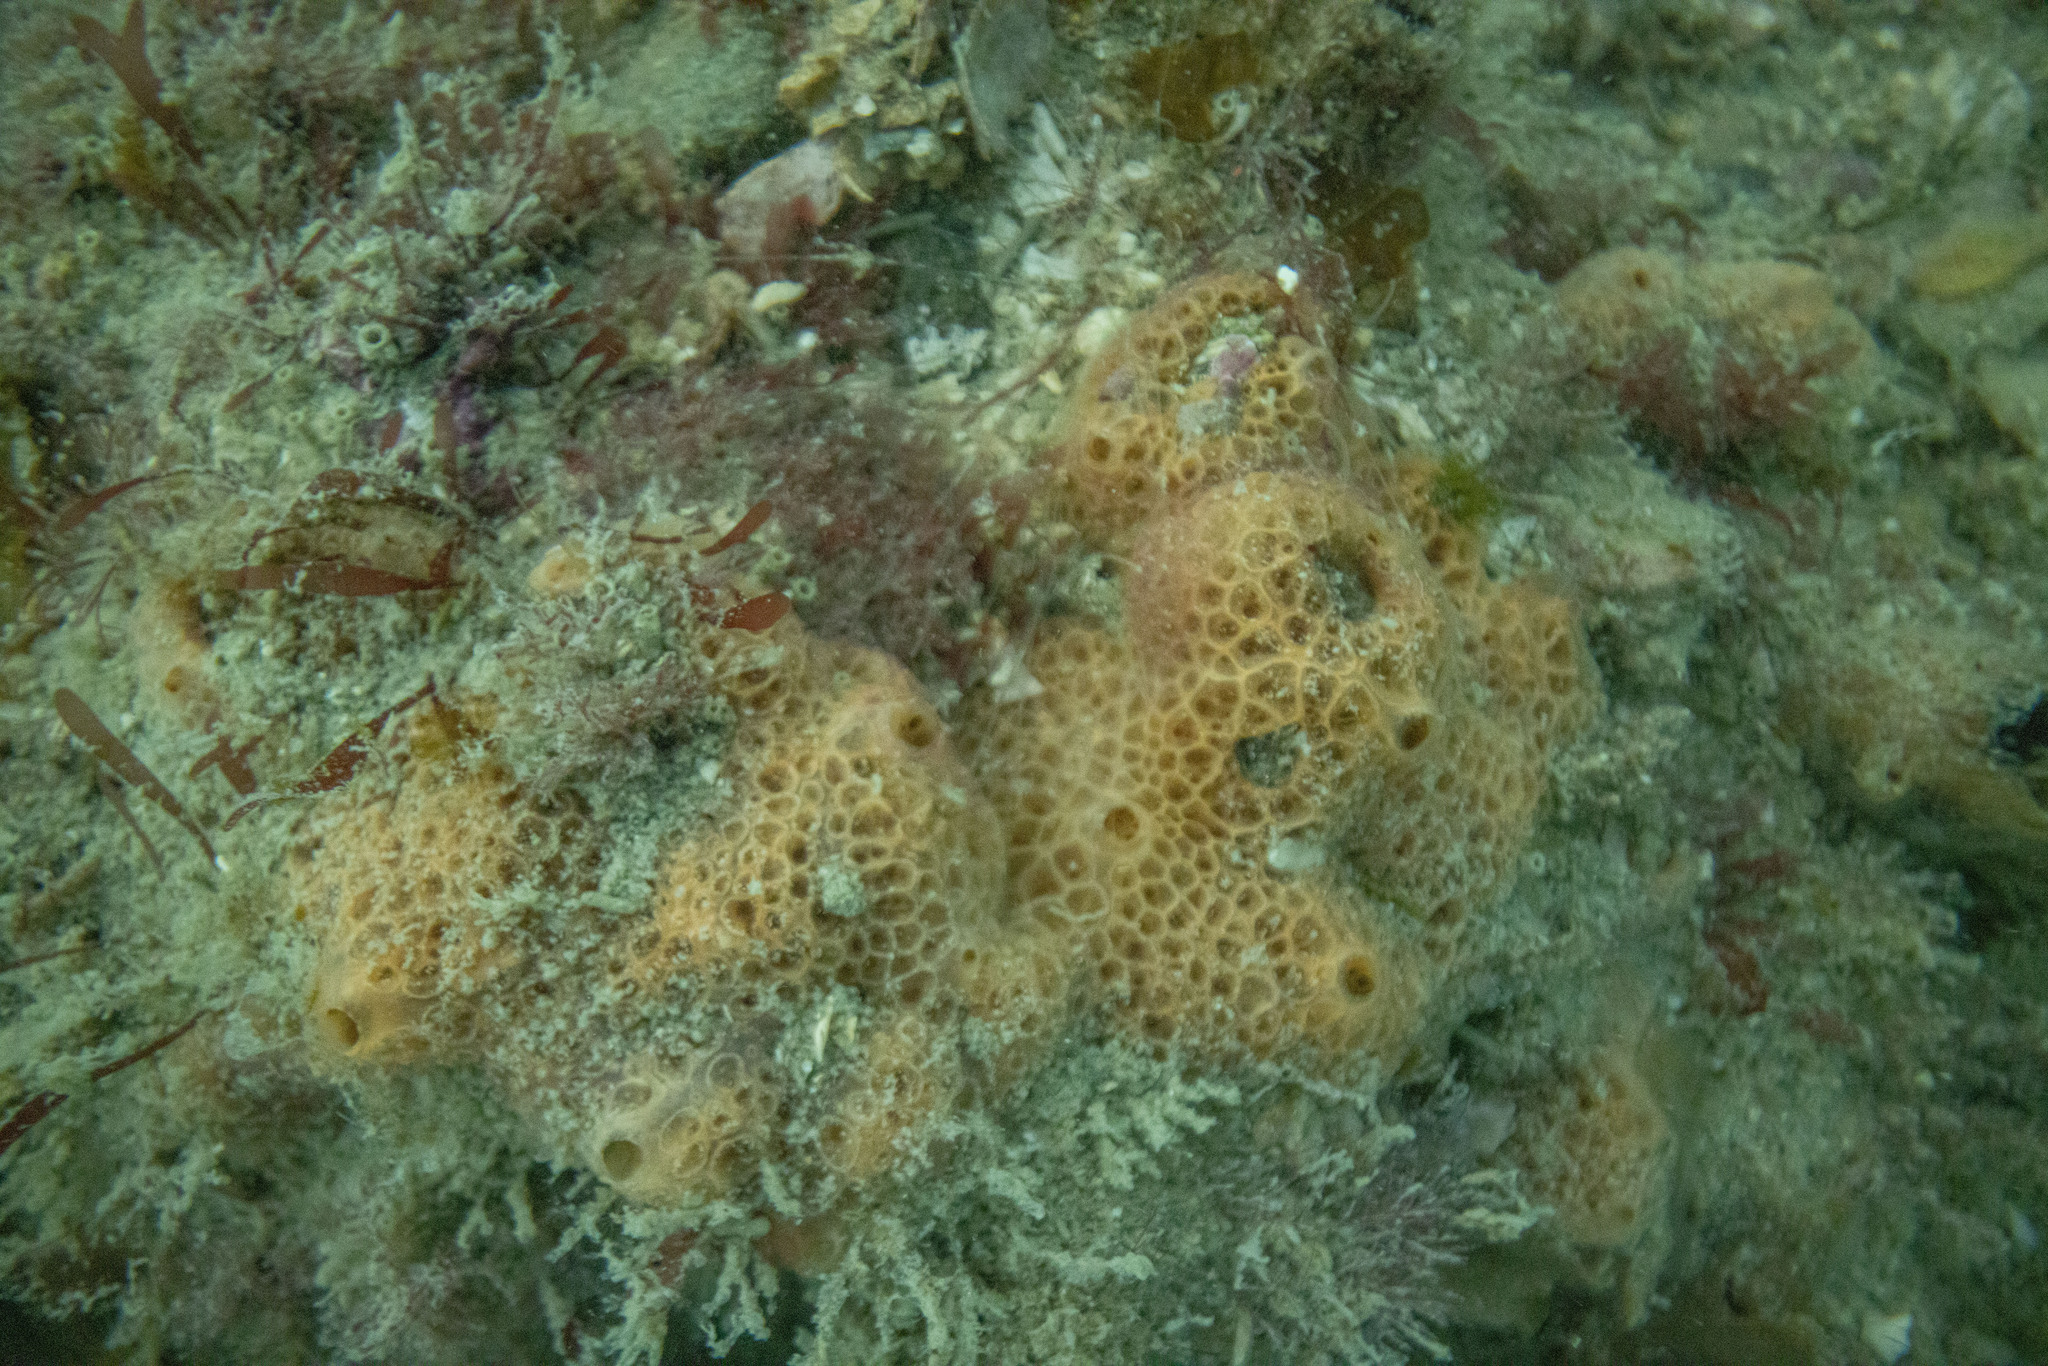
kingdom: Animalia
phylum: Porifera
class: Demospongiae
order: Poecilosclerida
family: Hymedesmiidae
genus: Hamigera
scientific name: Hamigera tarangaensis
